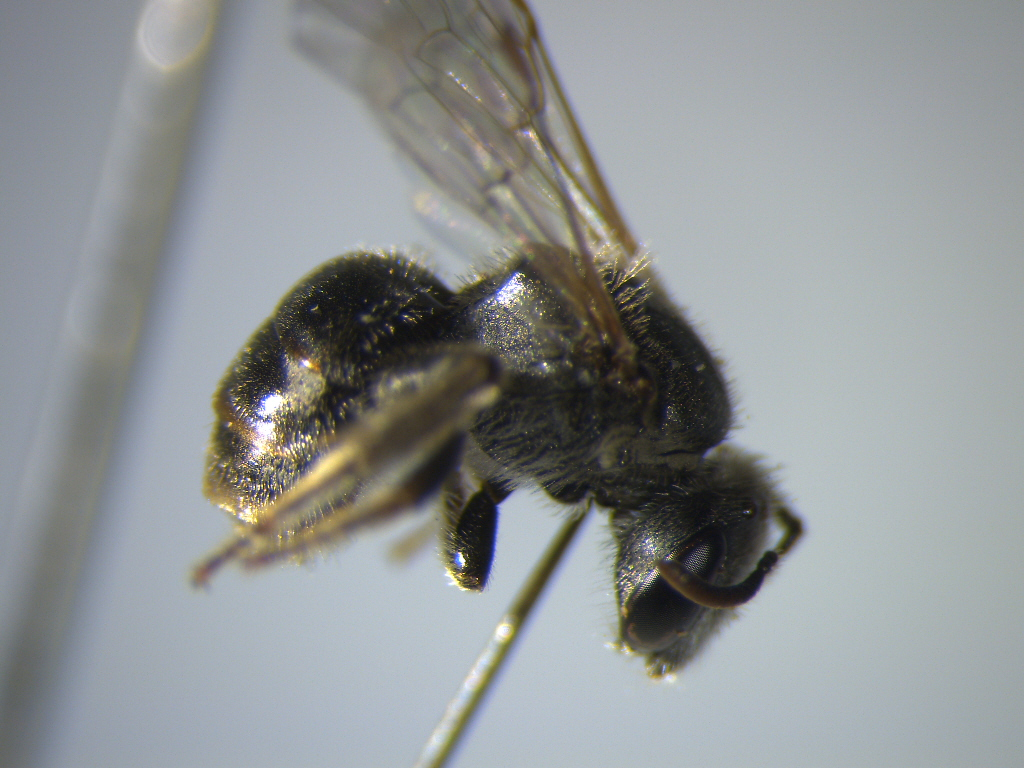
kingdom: Animalia
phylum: Arthropoda
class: Insecta
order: Hymenoptera
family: Halictidae
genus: Lasioglossum
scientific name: Lasioglossum cognatum
